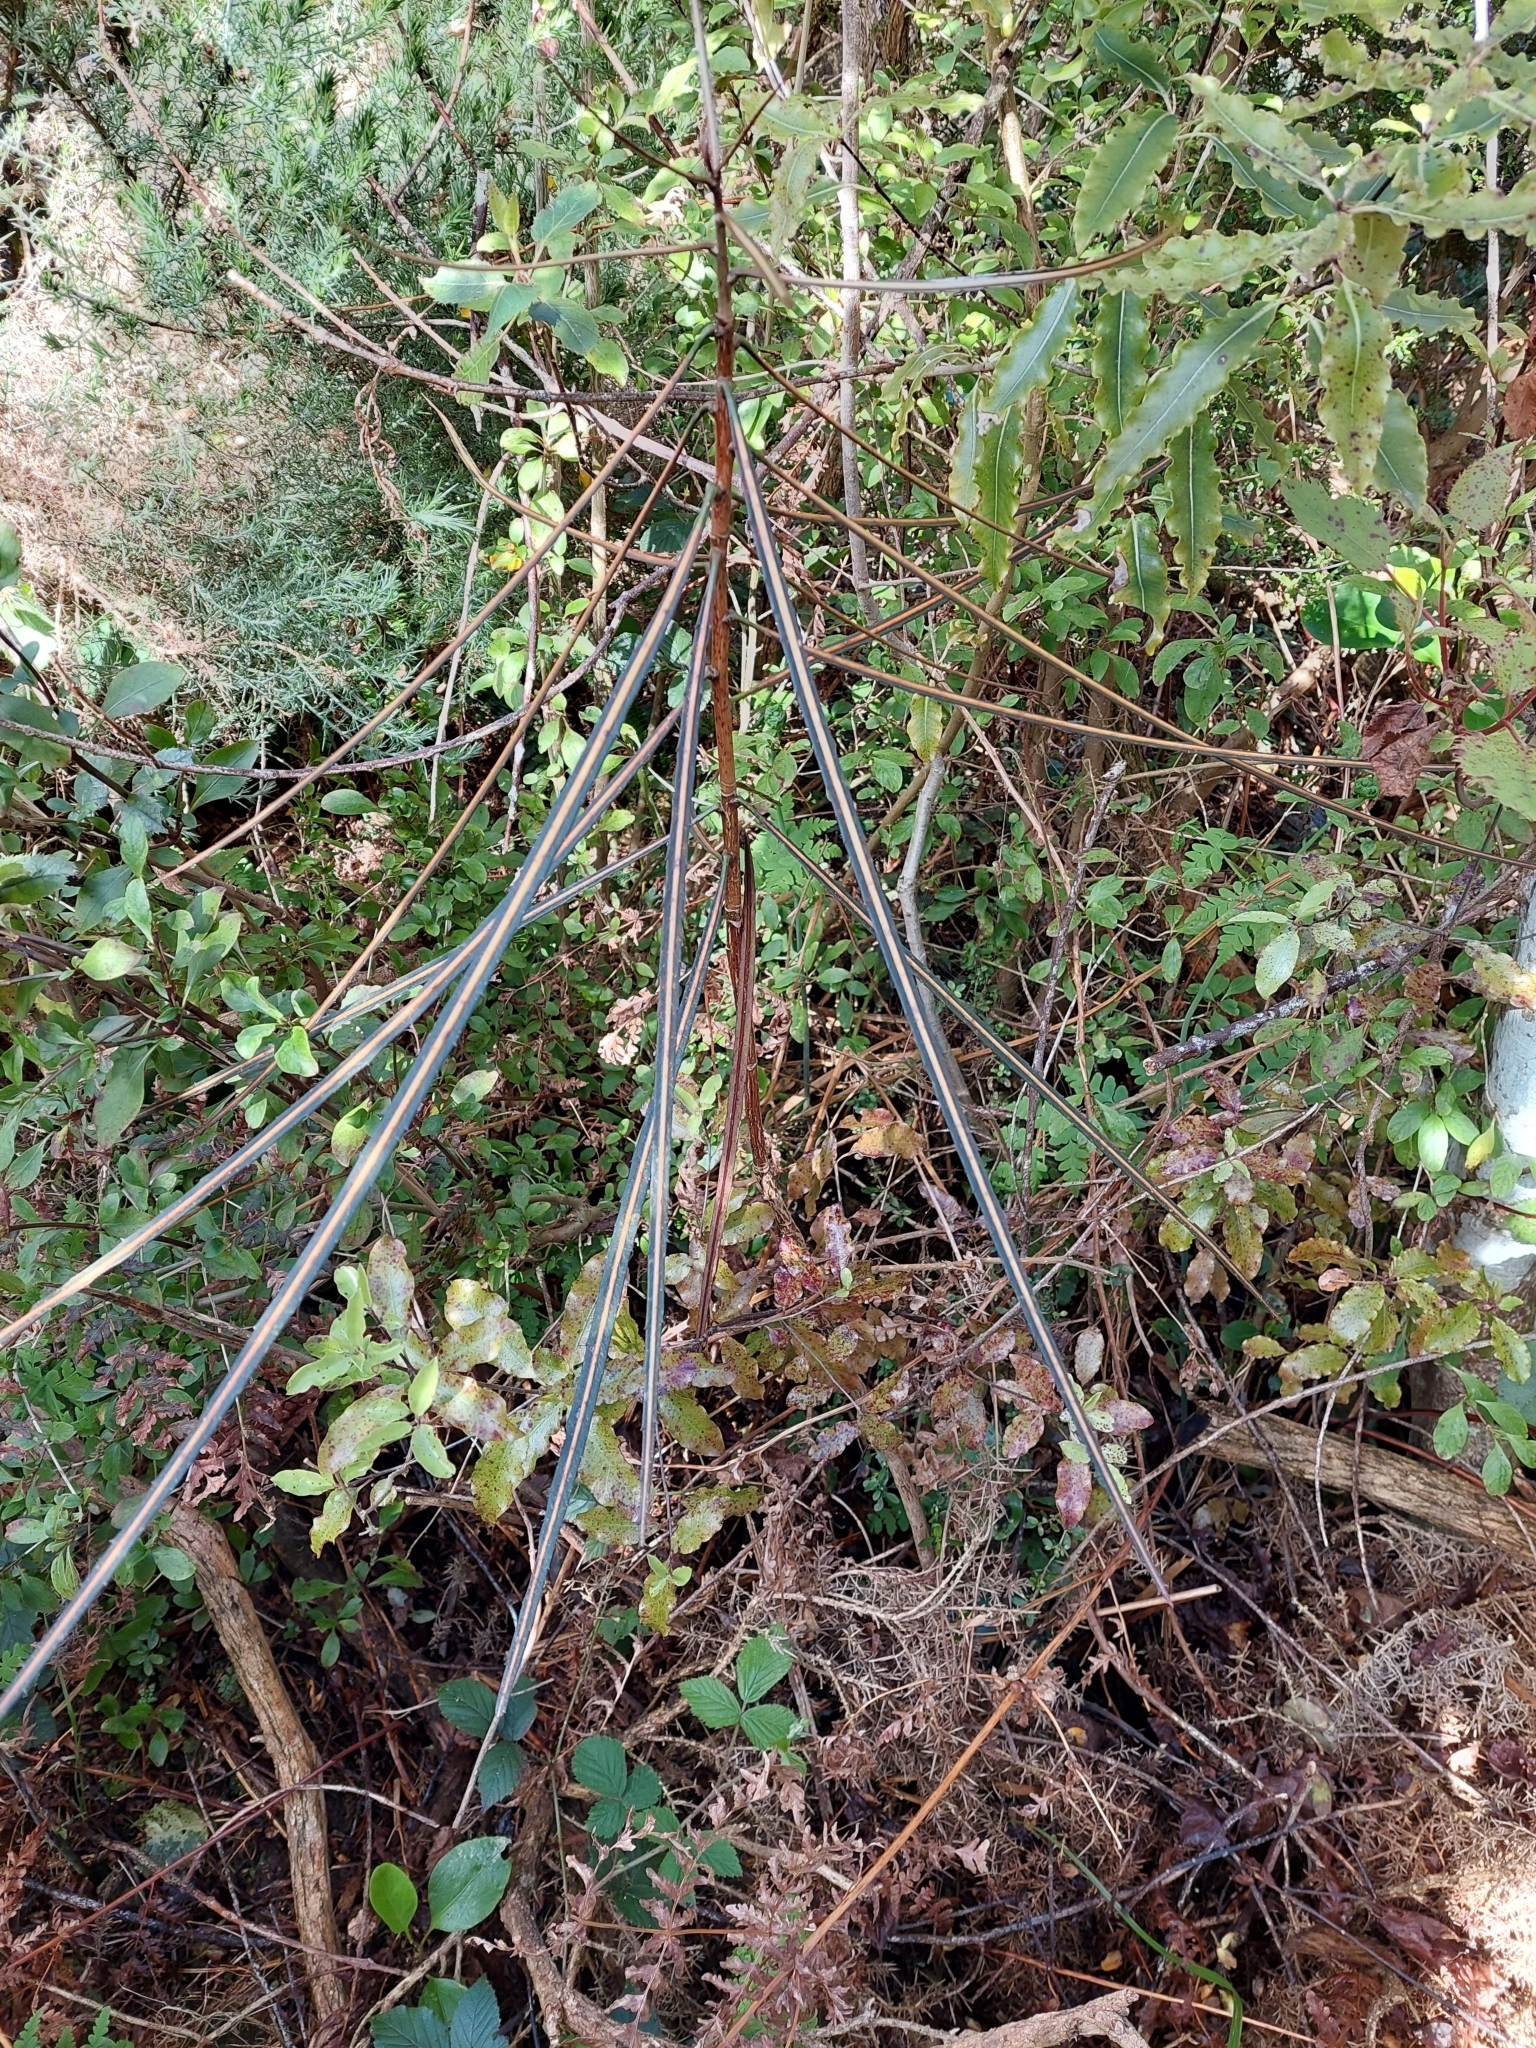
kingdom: Plantae
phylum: Tracheophyta
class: Magnoliopsida
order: Apiales
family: Araliaceae
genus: Pseudopanax
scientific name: Pseudopanax crassifolius
